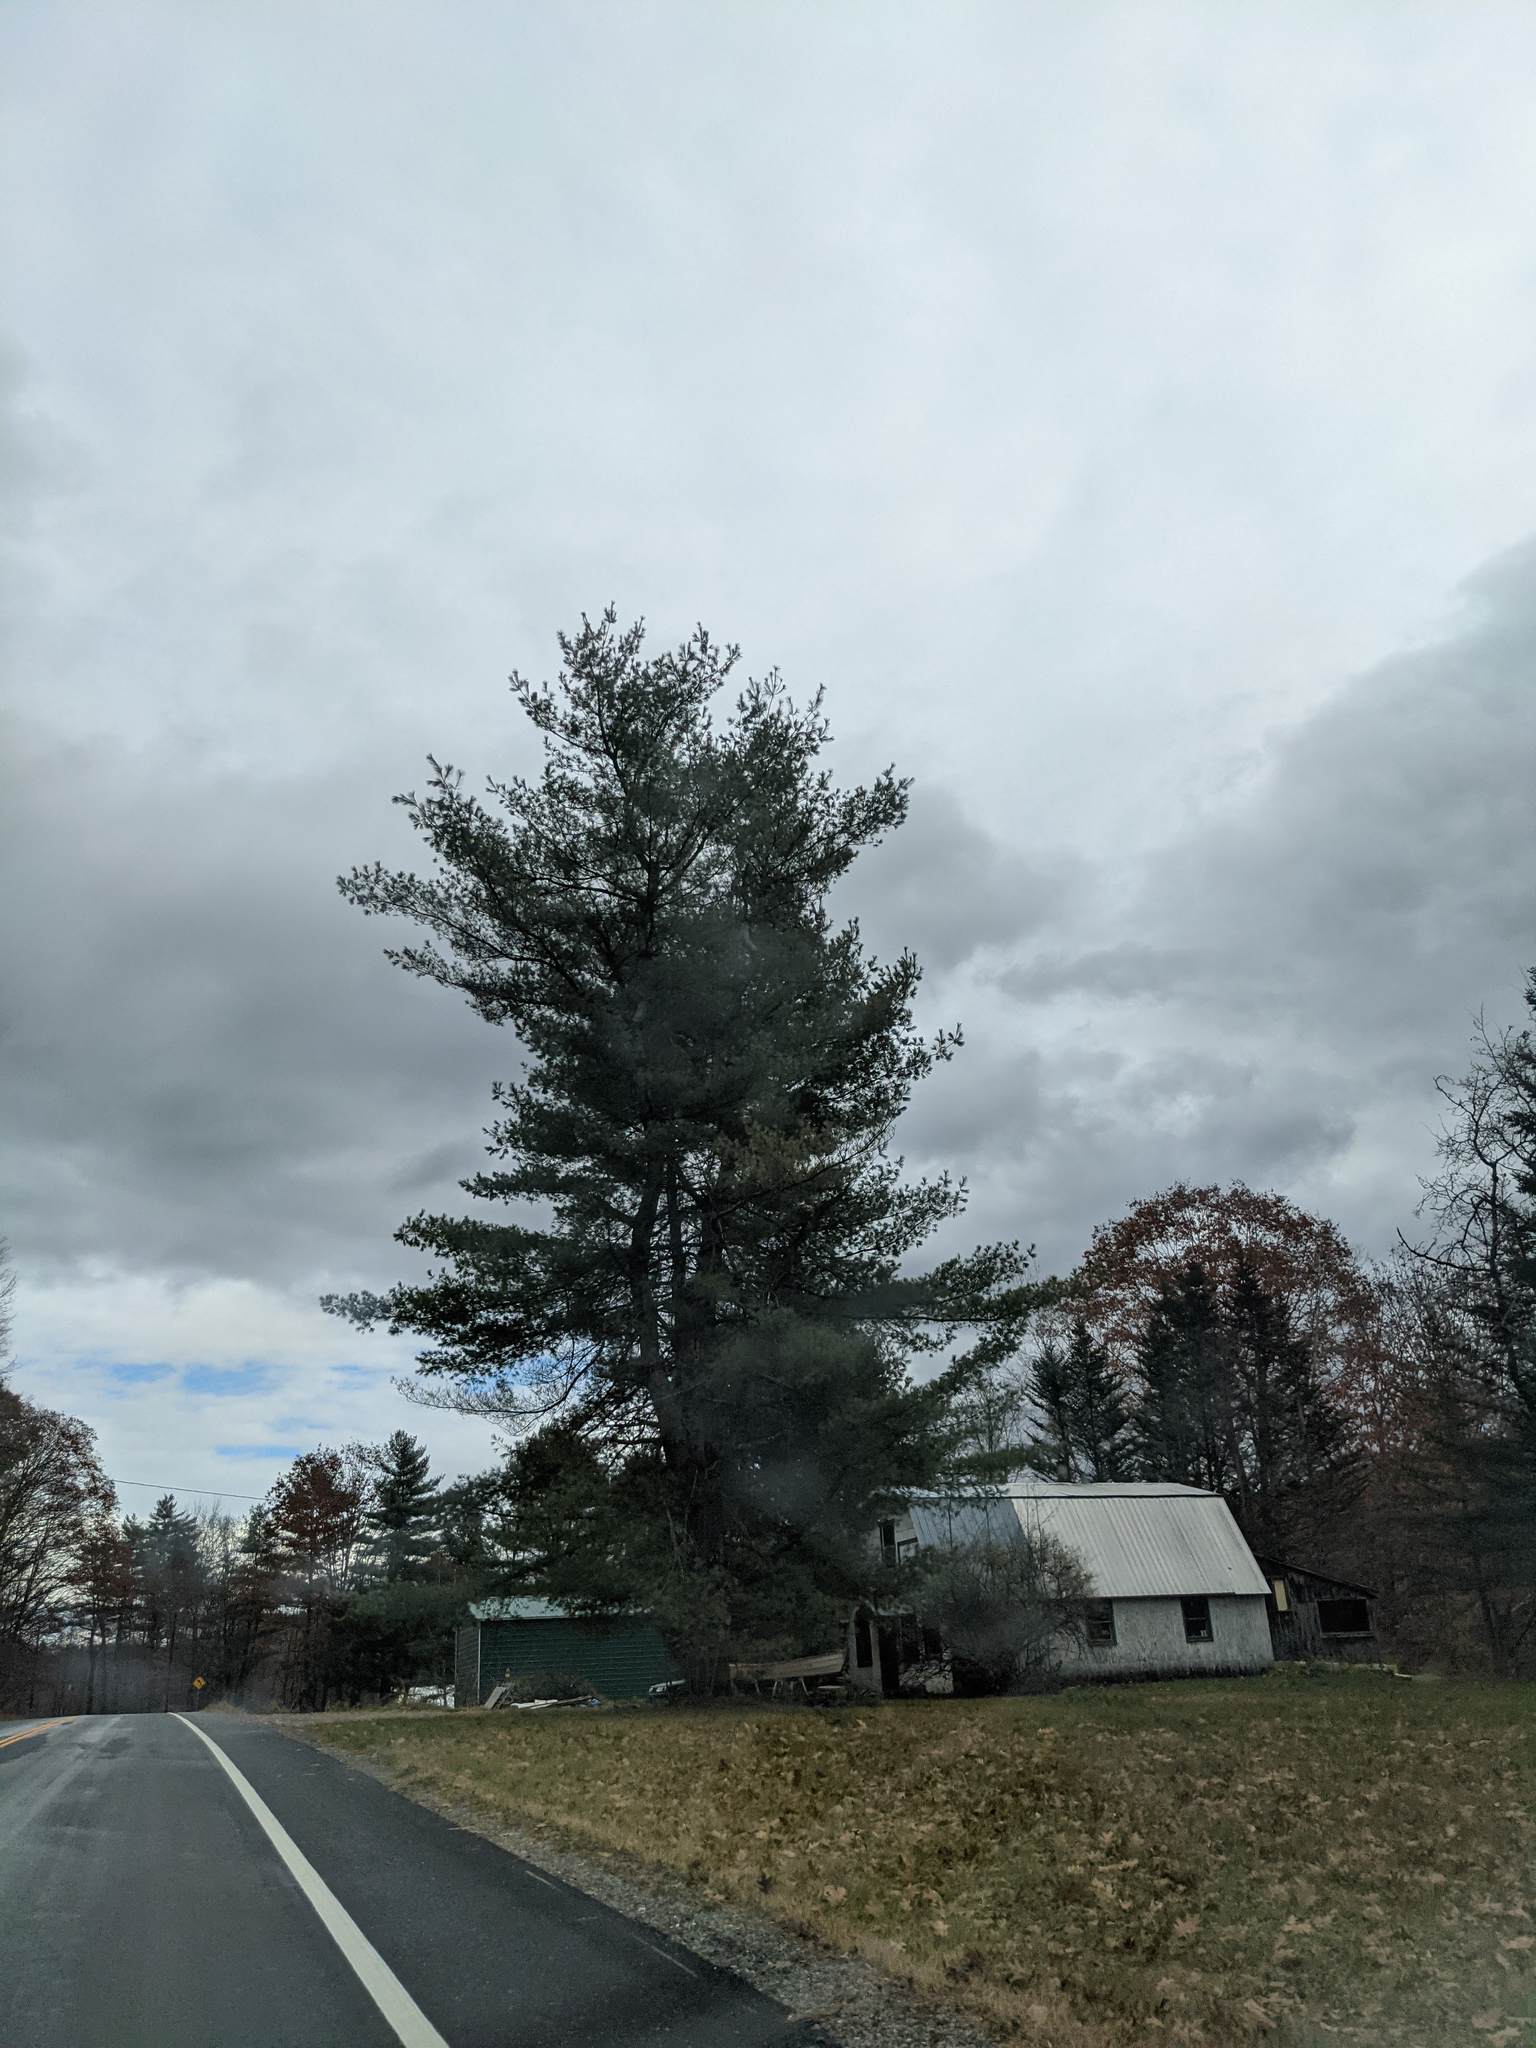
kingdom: Plantae
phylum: Tracheophyta
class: Pinopsida
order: Pinales
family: Pinaceae
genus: Pinus
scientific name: Pinus strobus
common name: Weymouth pine
